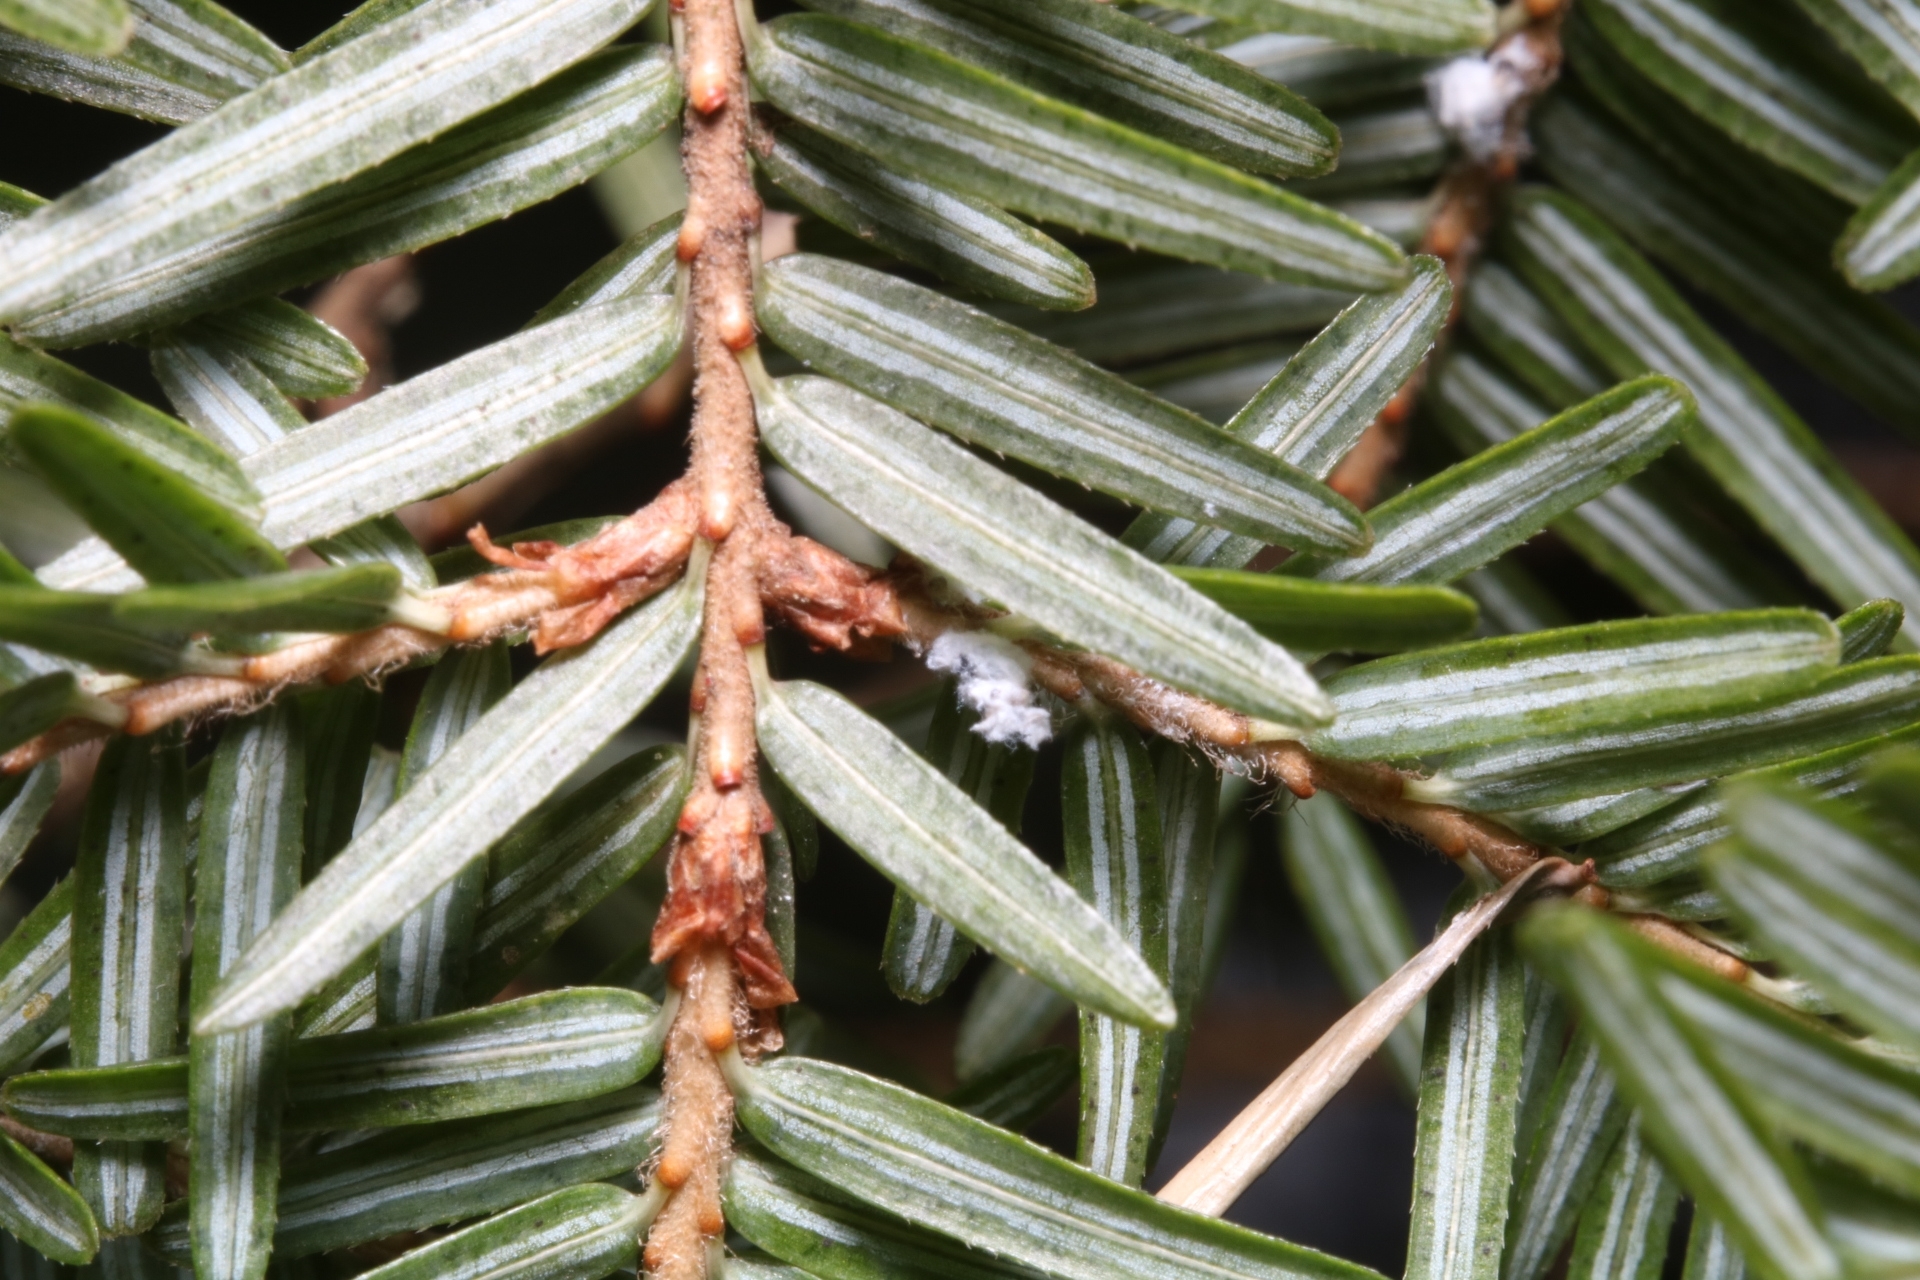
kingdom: Animalia
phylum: Arthropoda
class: Insecta
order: Hemiptera
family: Adelgidae
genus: Adelges
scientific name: Adelges tsugae
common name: Hemlock woolly adelgid
